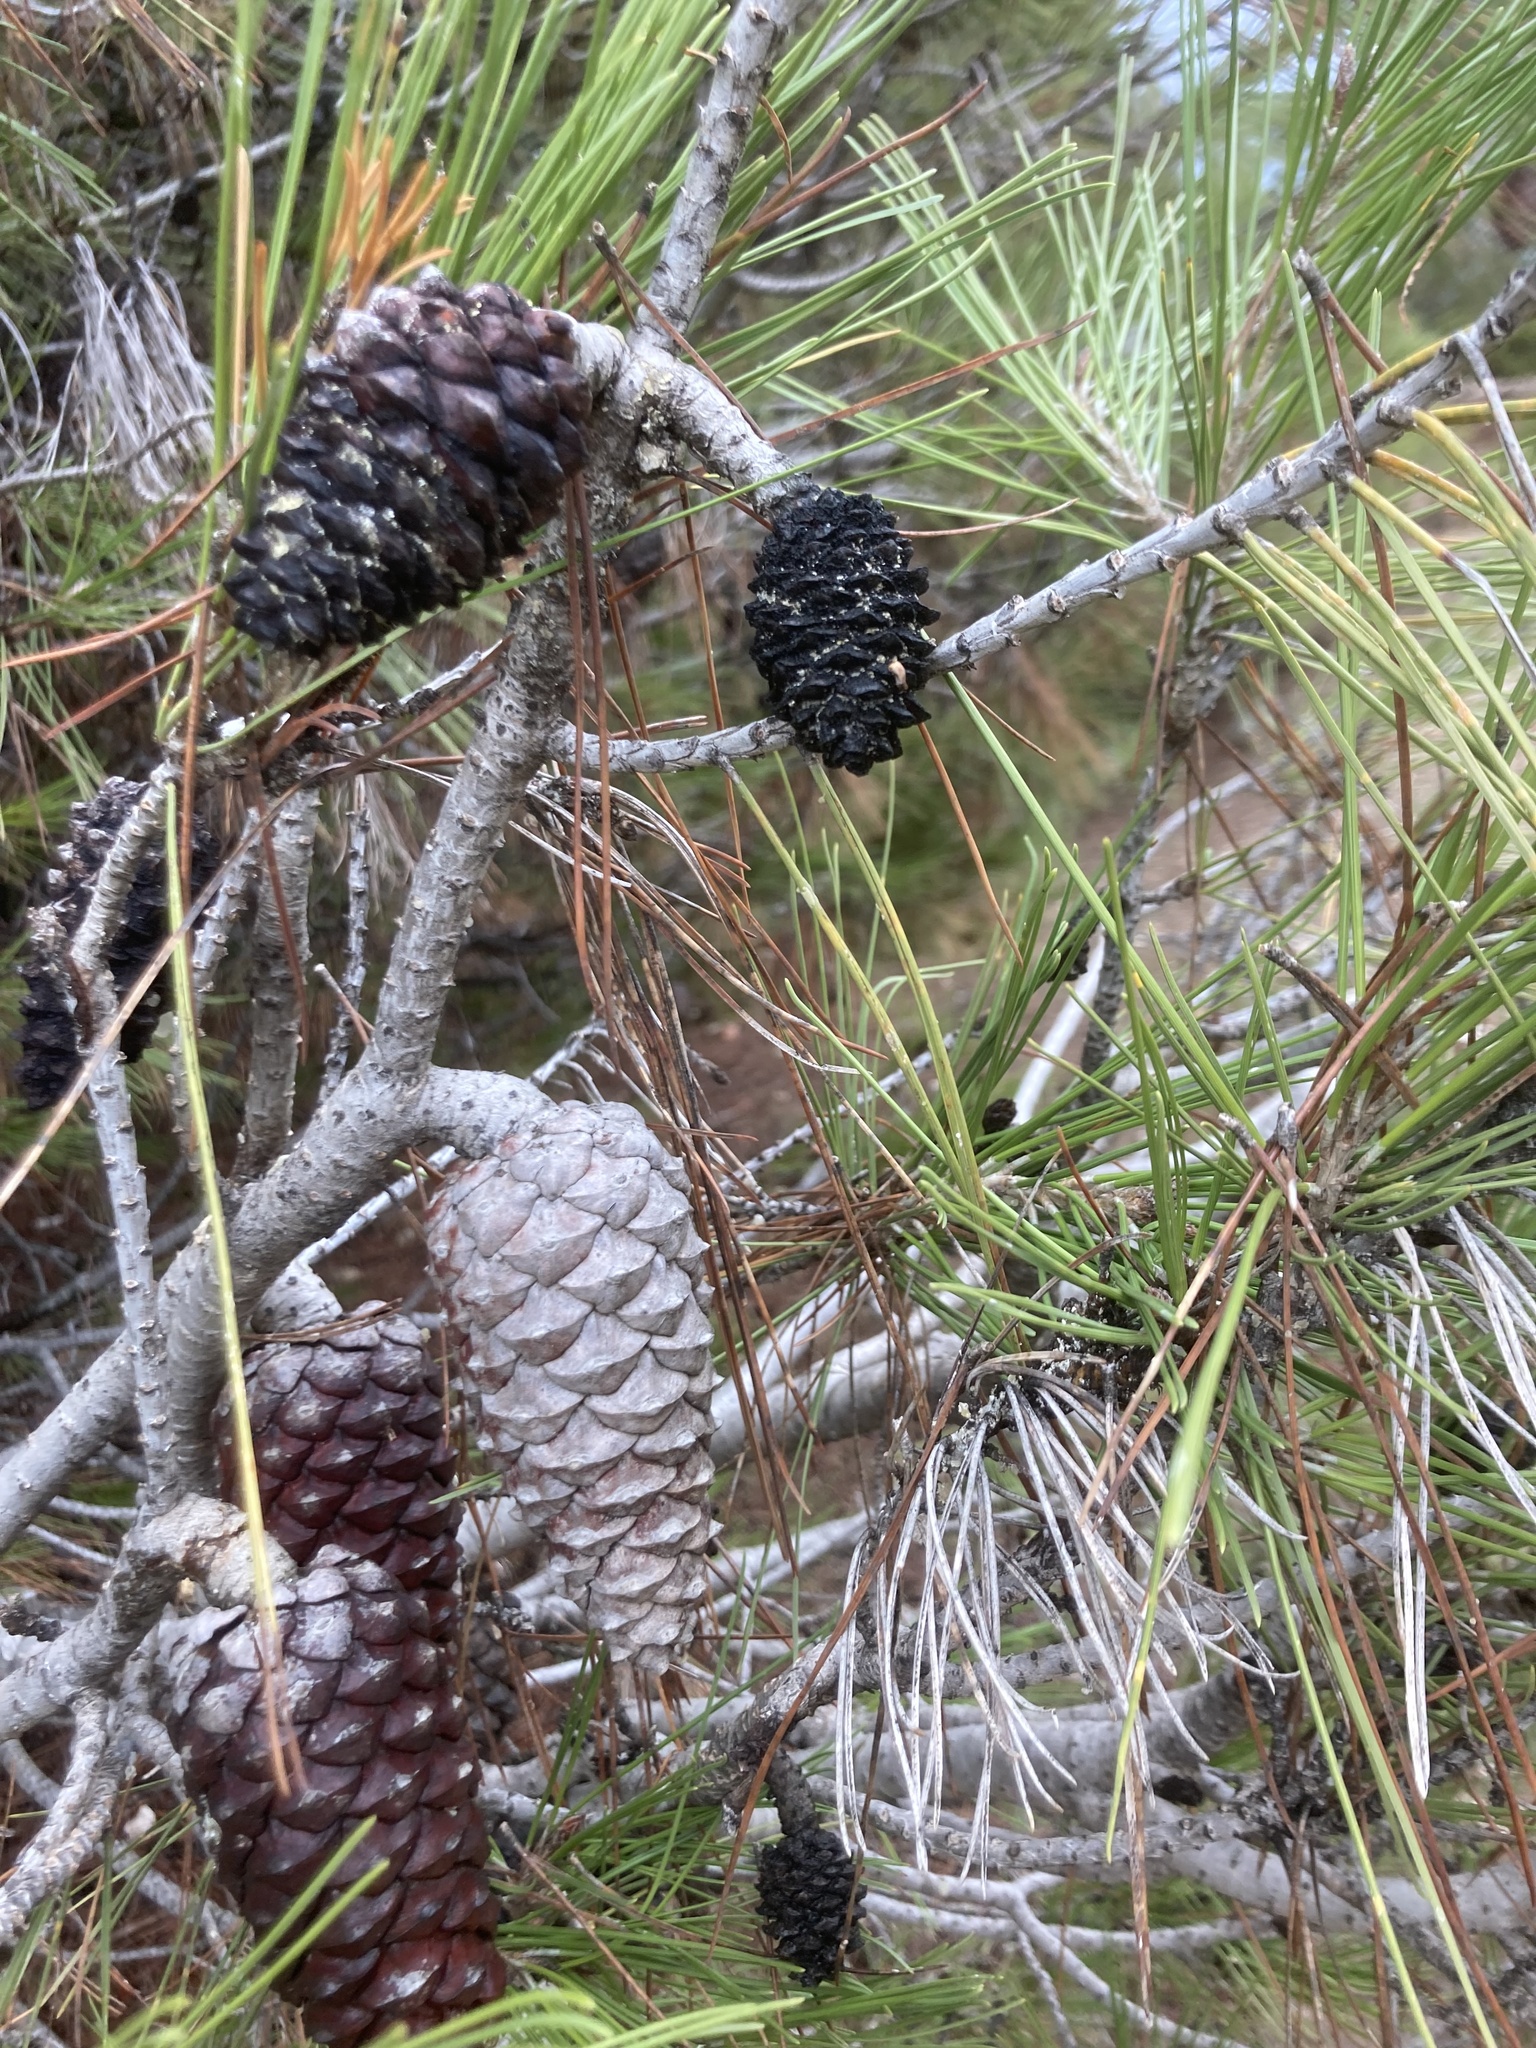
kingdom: Plantae
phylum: Tracheophyta
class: Pinopsida
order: Pinales
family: Pinaceae
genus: Pinus
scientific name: Pinus halepensis
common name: Aleppo pine
